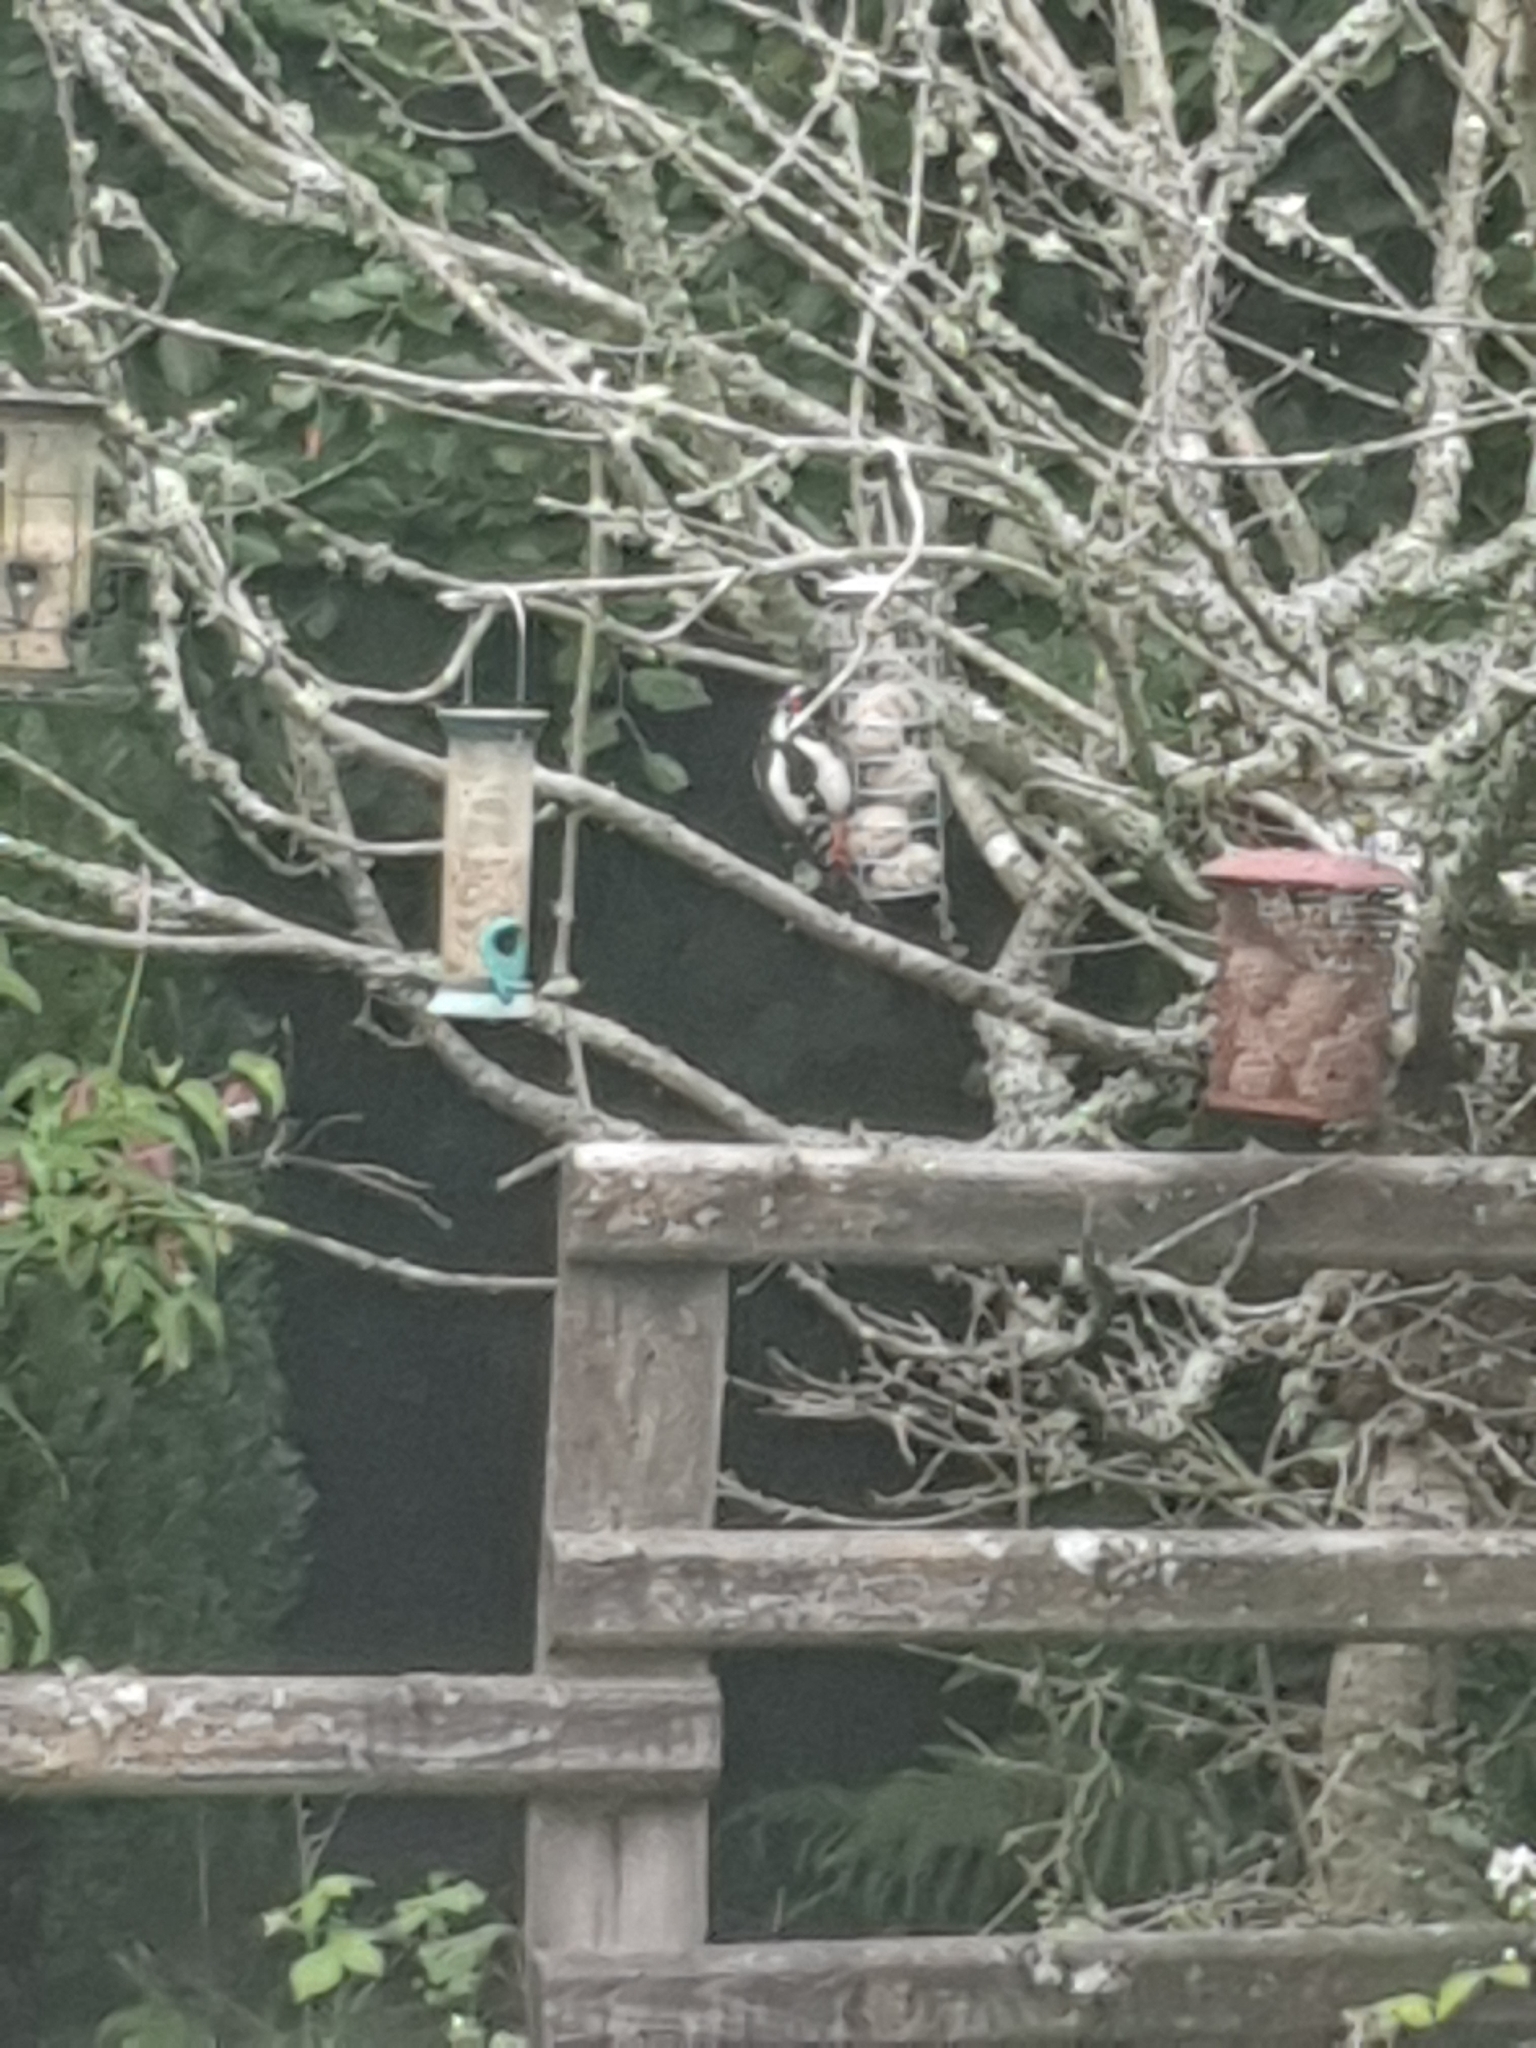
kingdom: Animalia
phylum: Chordata
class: Aves
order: Piciformes
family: Picidae
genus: Dendrocopos
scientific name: Dendrocopos major
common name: Great spotted woodpecker
